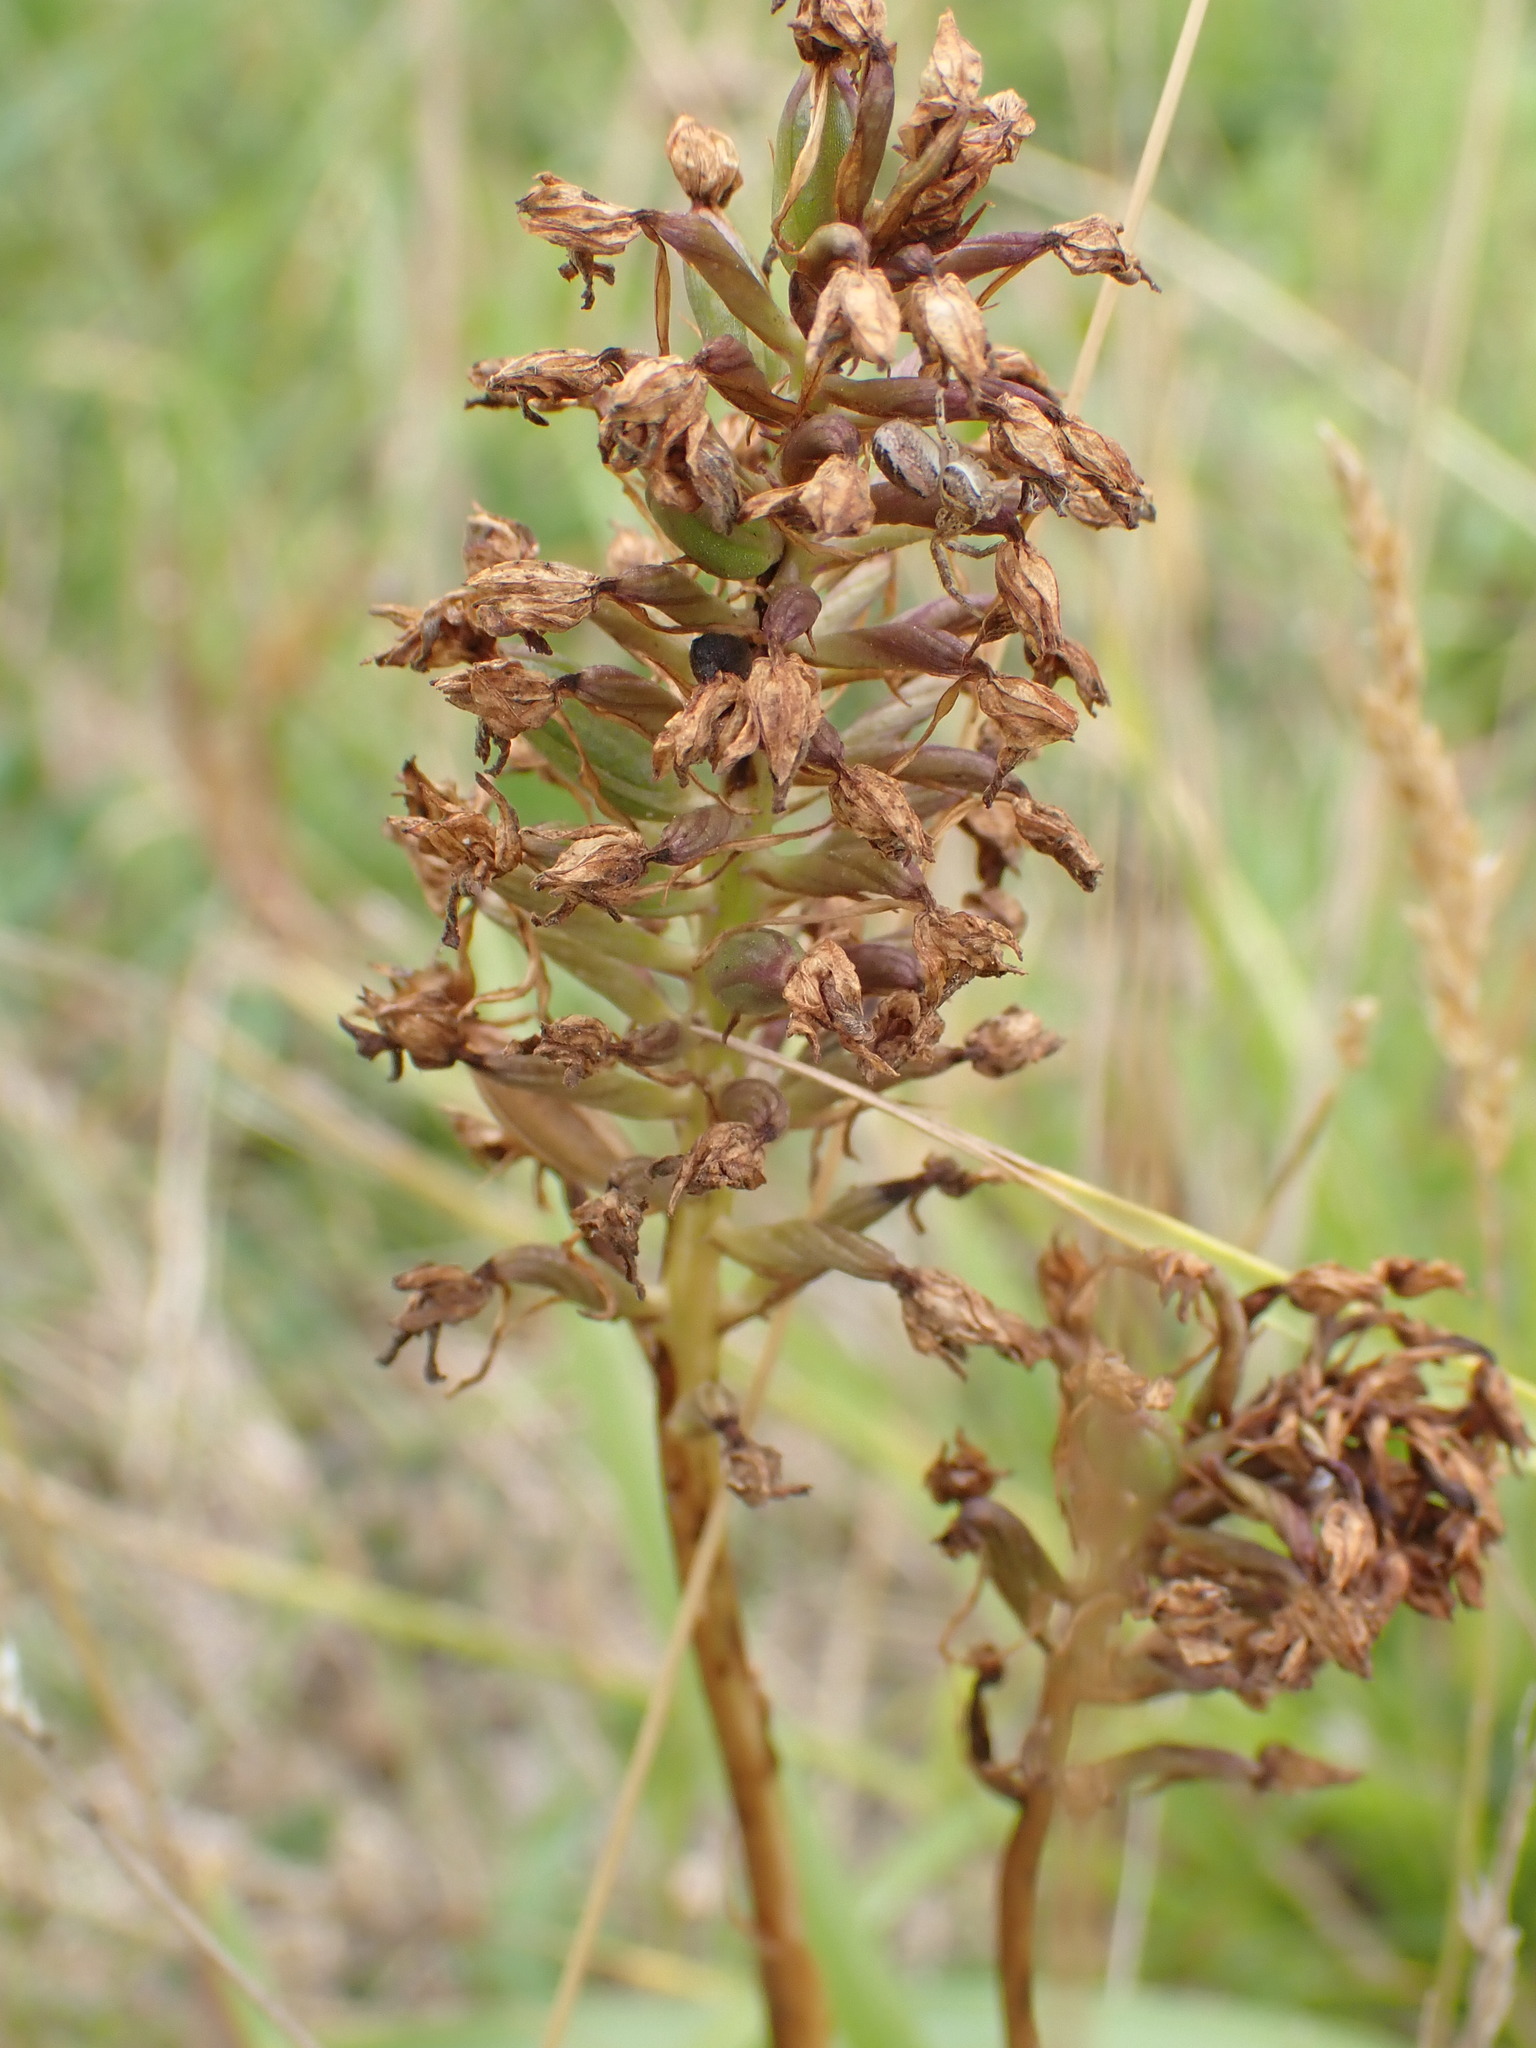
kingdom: Plantae
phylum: Tracheophyta
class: Liliopsida
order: Asparagales
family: Orchidaceae
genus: Anacamptis
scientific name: Anacamptis pyramidalis
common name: Pyramidal orchid
